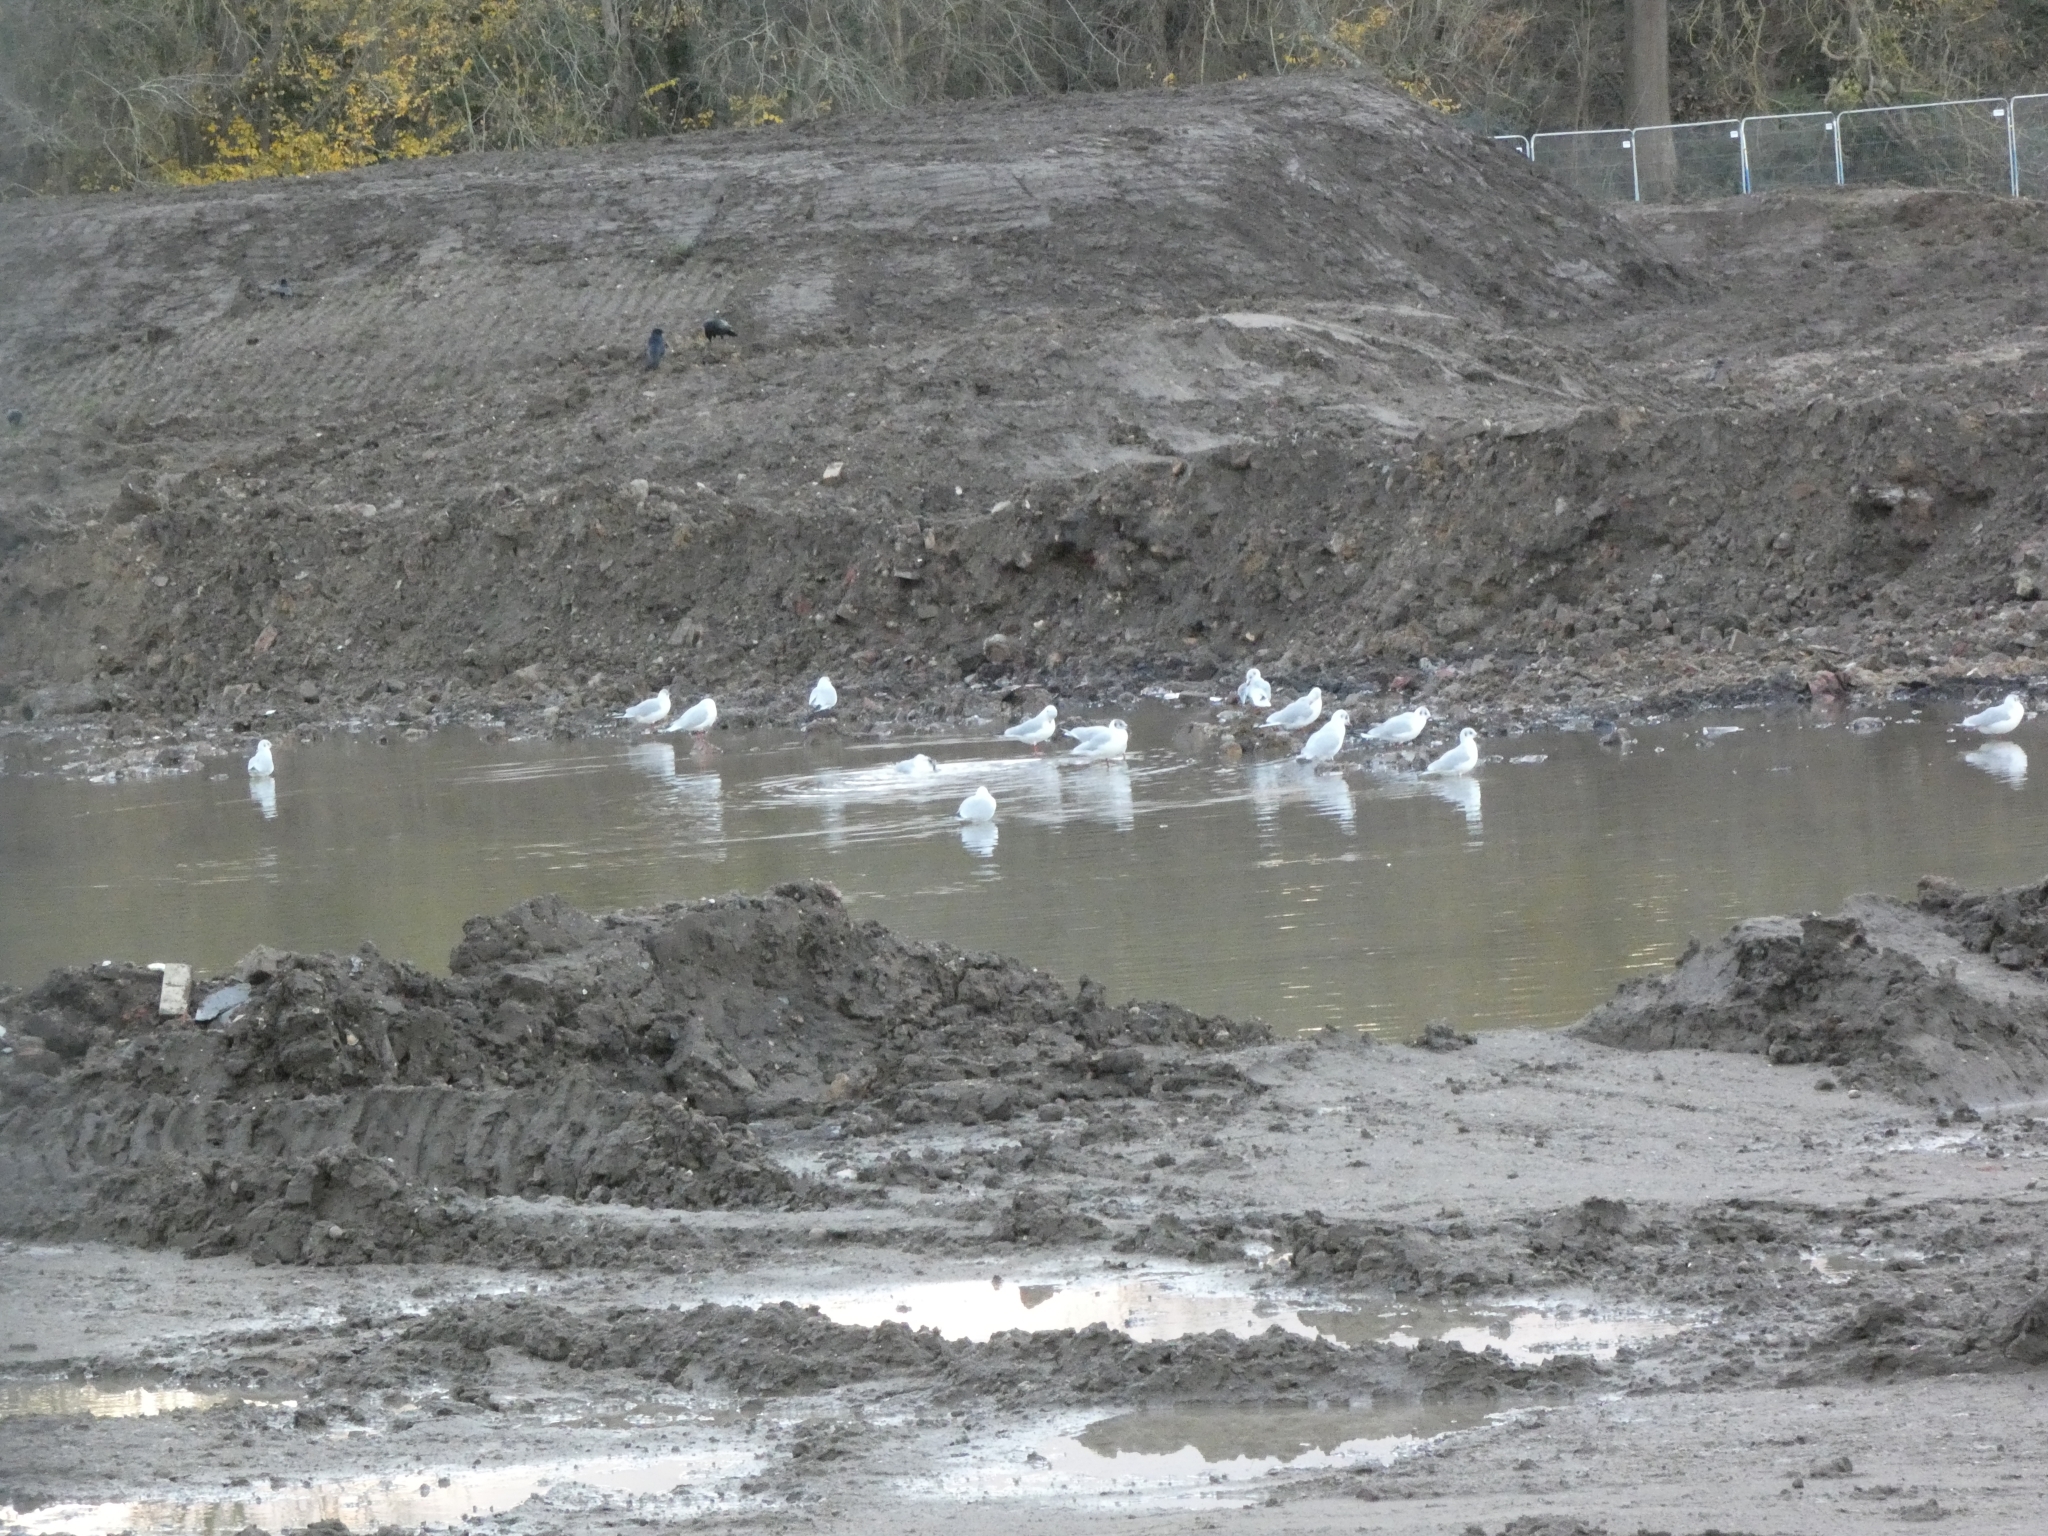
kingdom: Animalia
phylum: Chordata
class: Aves
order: Charadriiformes
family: Laridae
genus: Chroicocephalus
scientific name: Chroicocephalus ridibundus
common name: Black-headed gull
